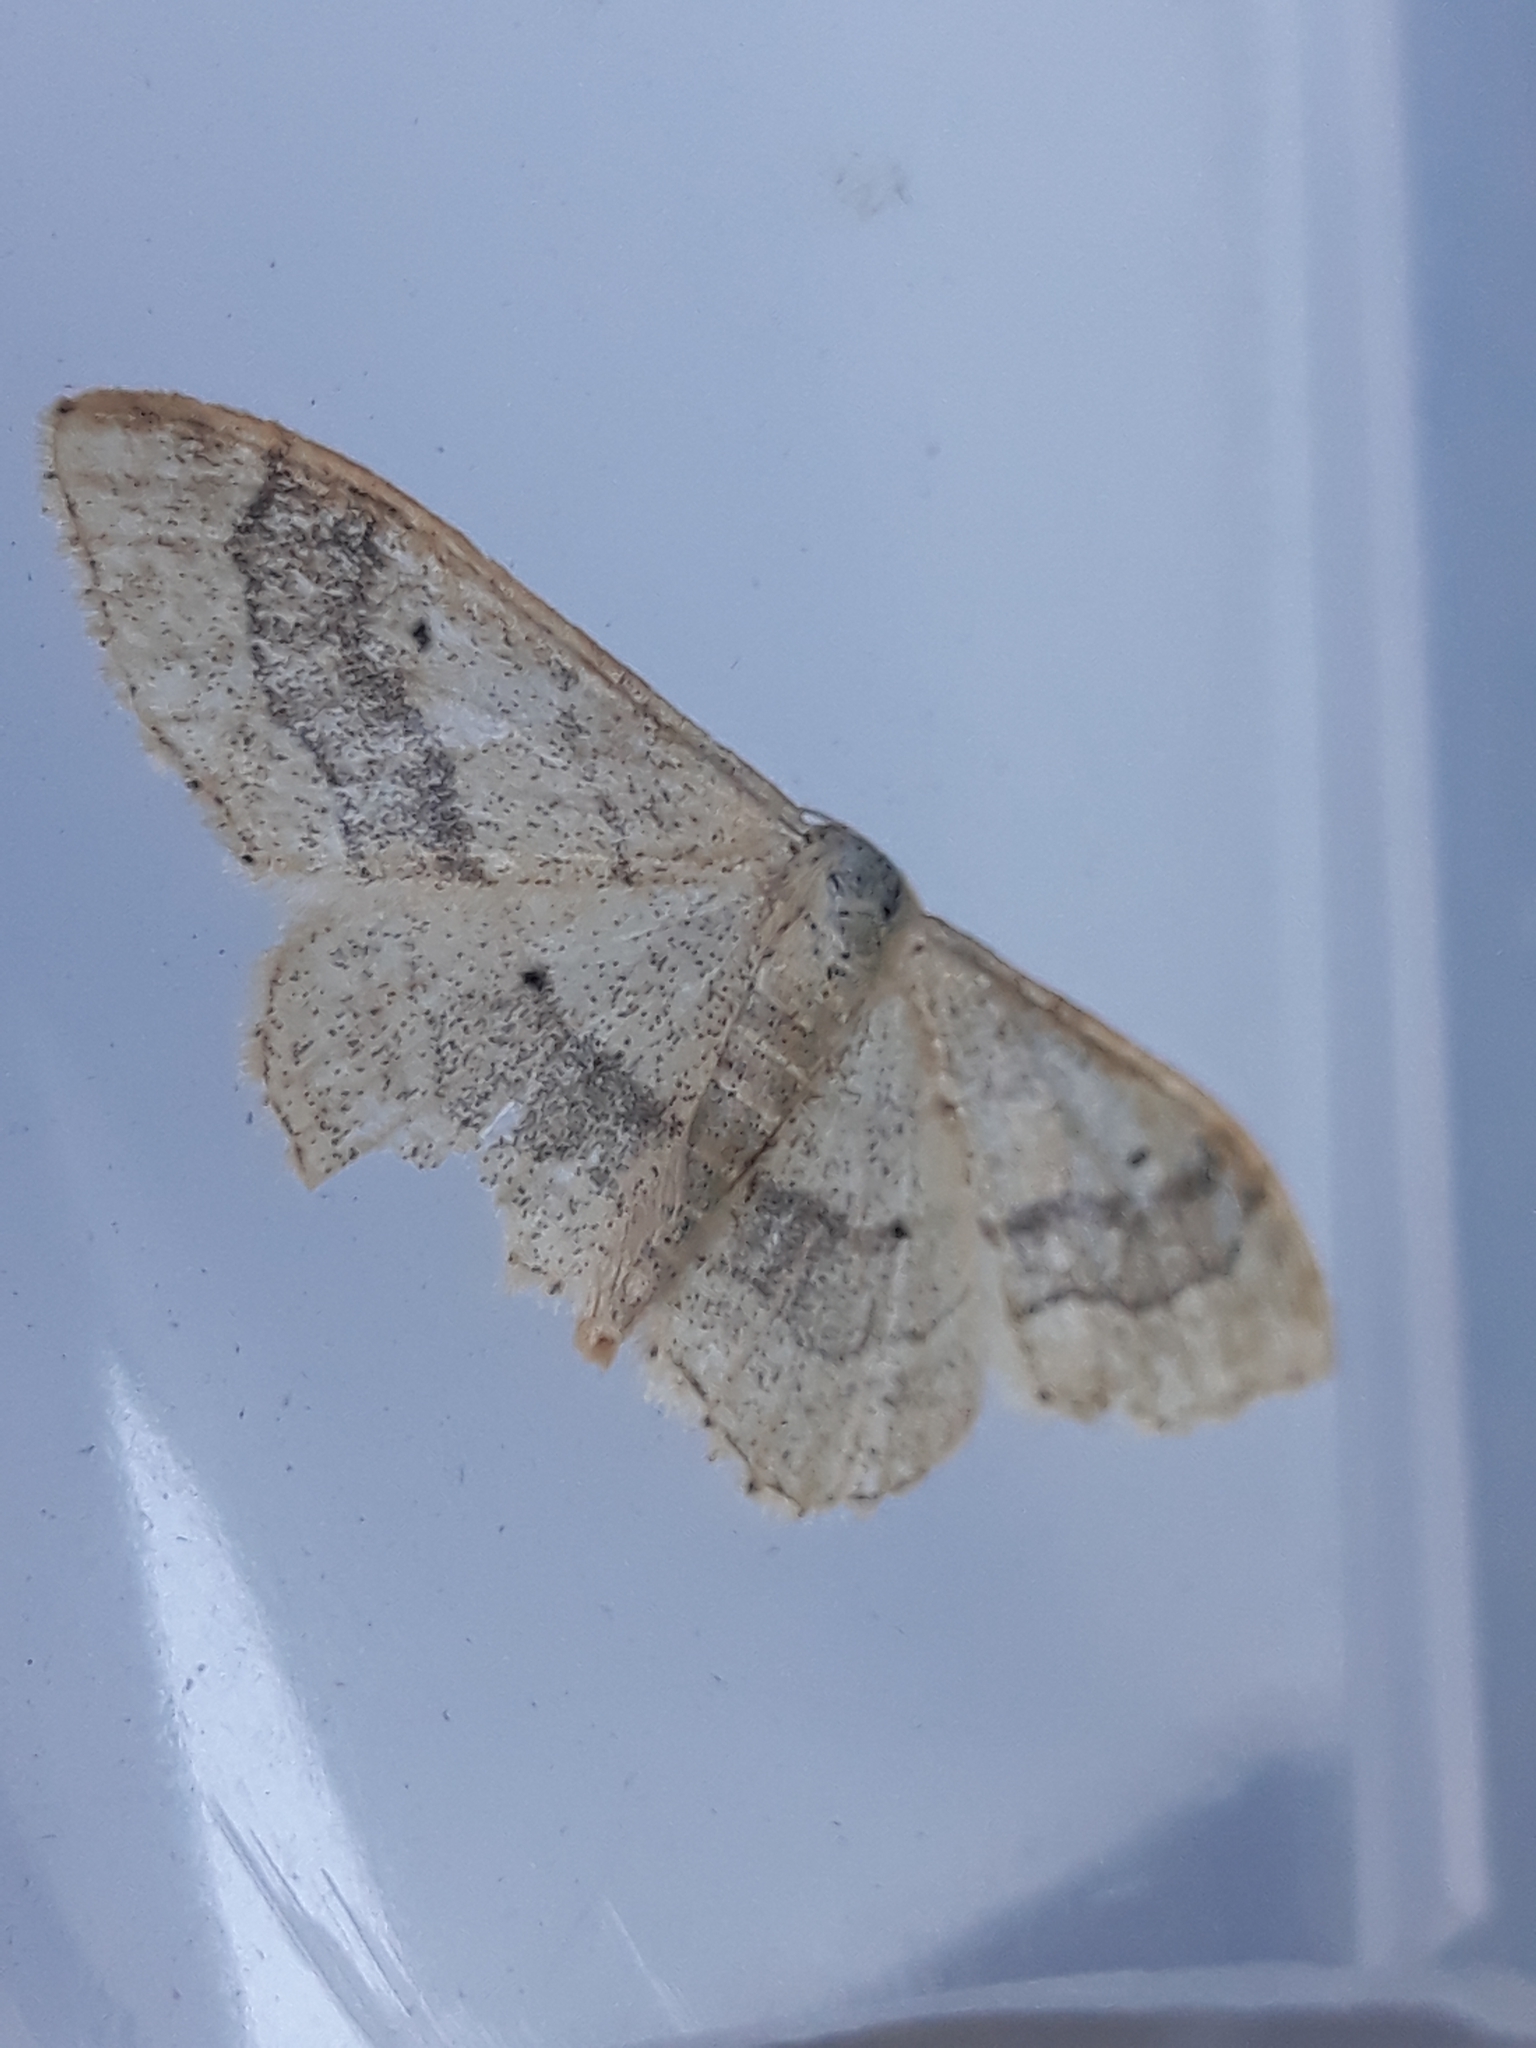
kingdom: Animalia
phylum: Arthropoda
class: Insecta
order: Lepidoptera
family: Geometridae
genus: Idaea
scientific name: Idaea aversata
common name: Riband wave
